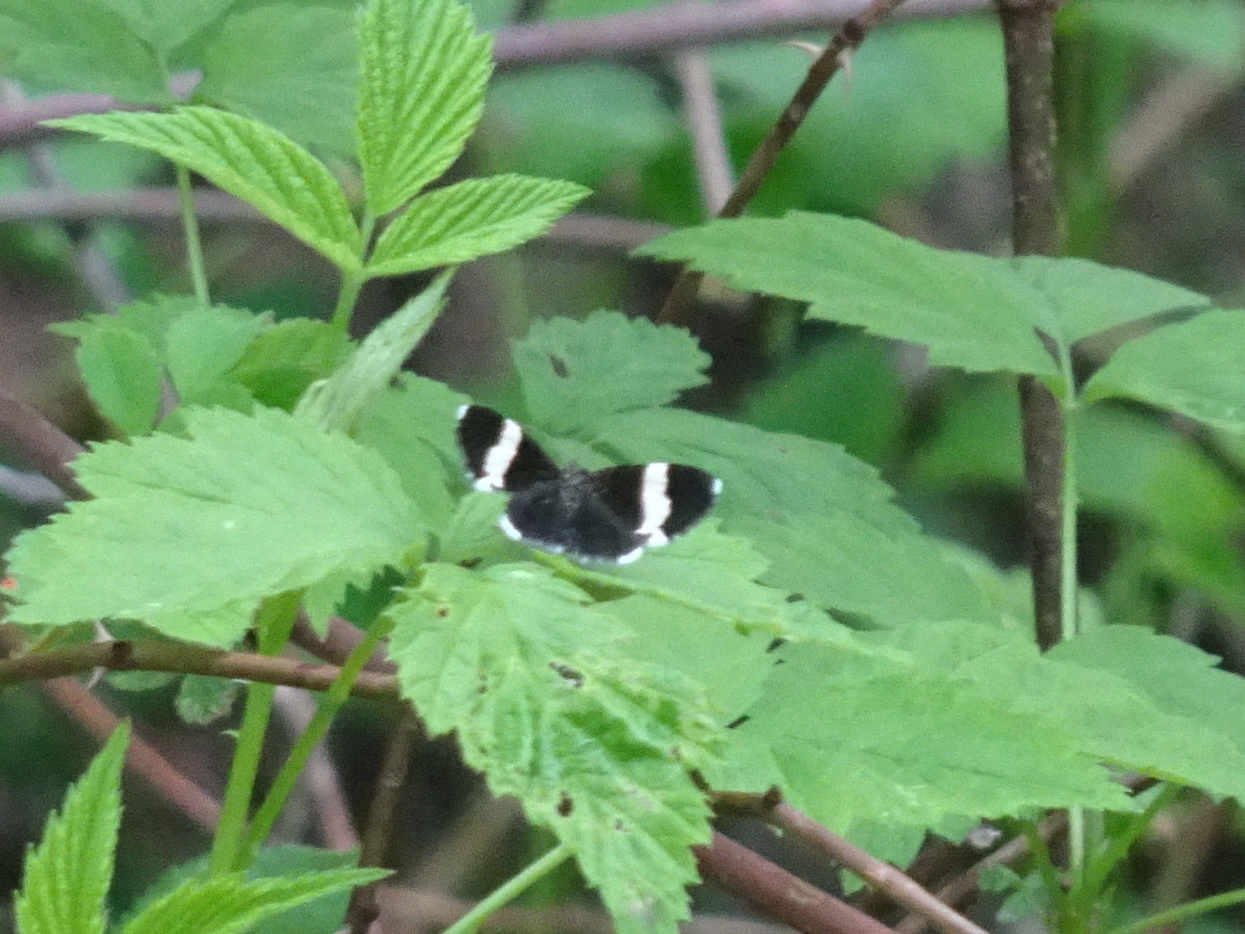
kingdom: Animalia
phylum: Arthropoda
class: Insecta
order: Lepidoptera
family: Geometridae
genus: Trichodezia
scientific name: Trichodezia albovittata
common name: White striped black
